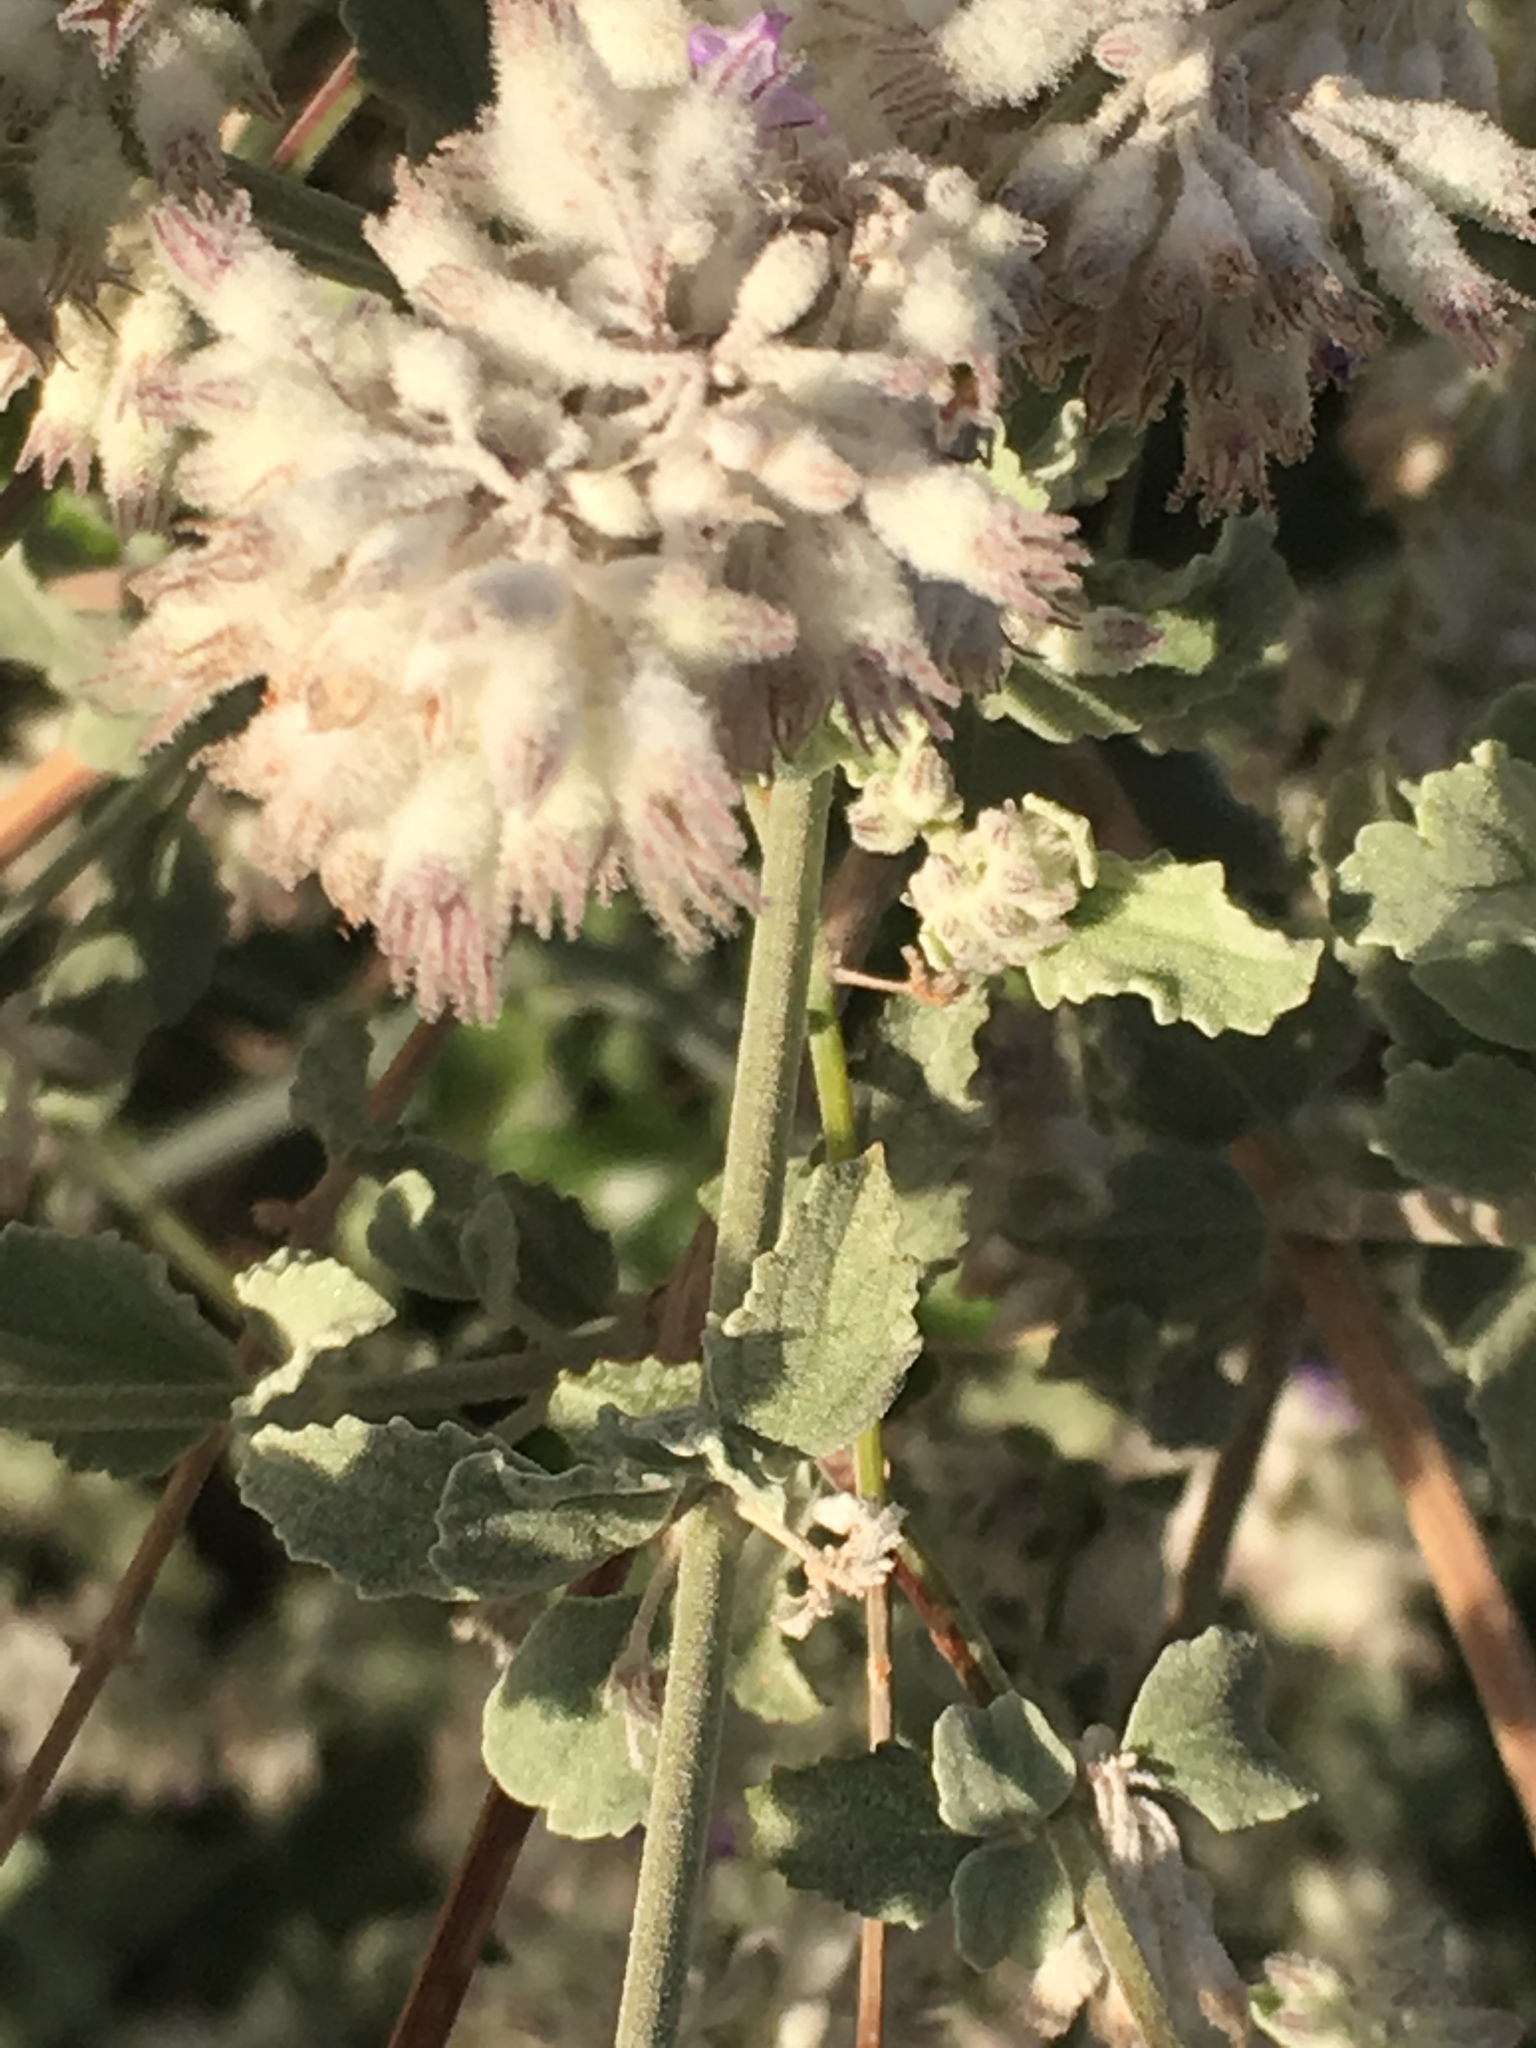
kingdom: Plantae
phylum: Tracheophyta
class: Magnoliopsida
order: Lamiales
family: Lamiaceae
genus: Condea
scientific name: Condea emoryi
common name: Chia
